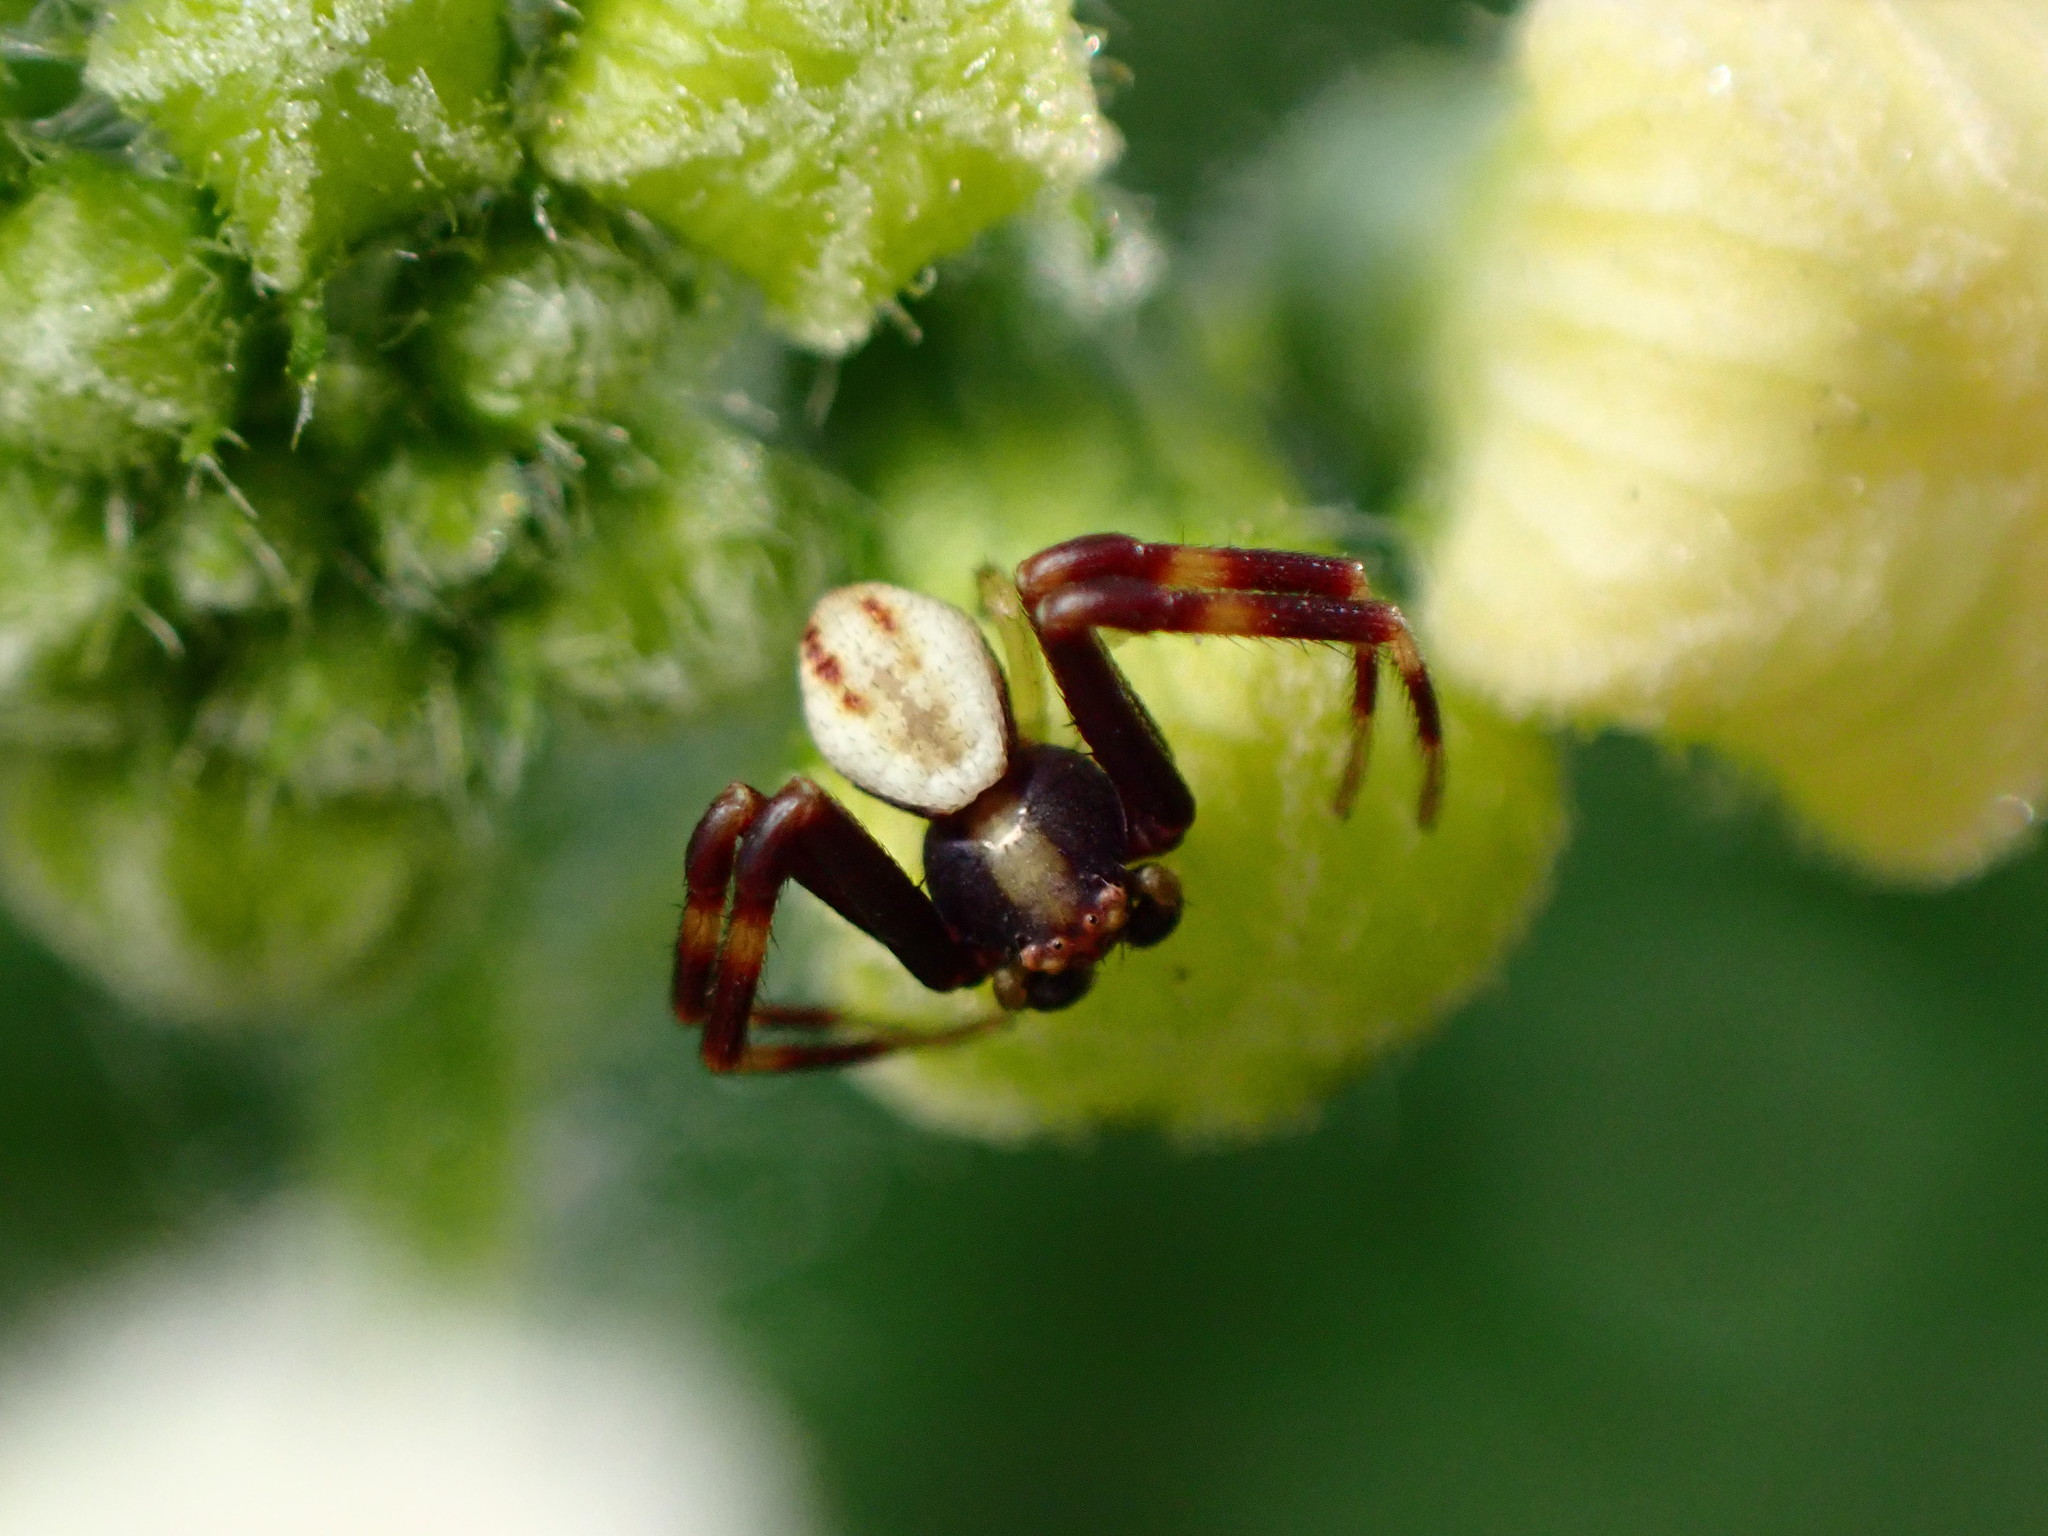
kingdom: Animalia
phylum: Arthropoda
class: Arachnida
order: Araneae
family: Thomisidae
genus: Misumena
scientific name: Misumena vatia
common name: Goldenrod crab spider
